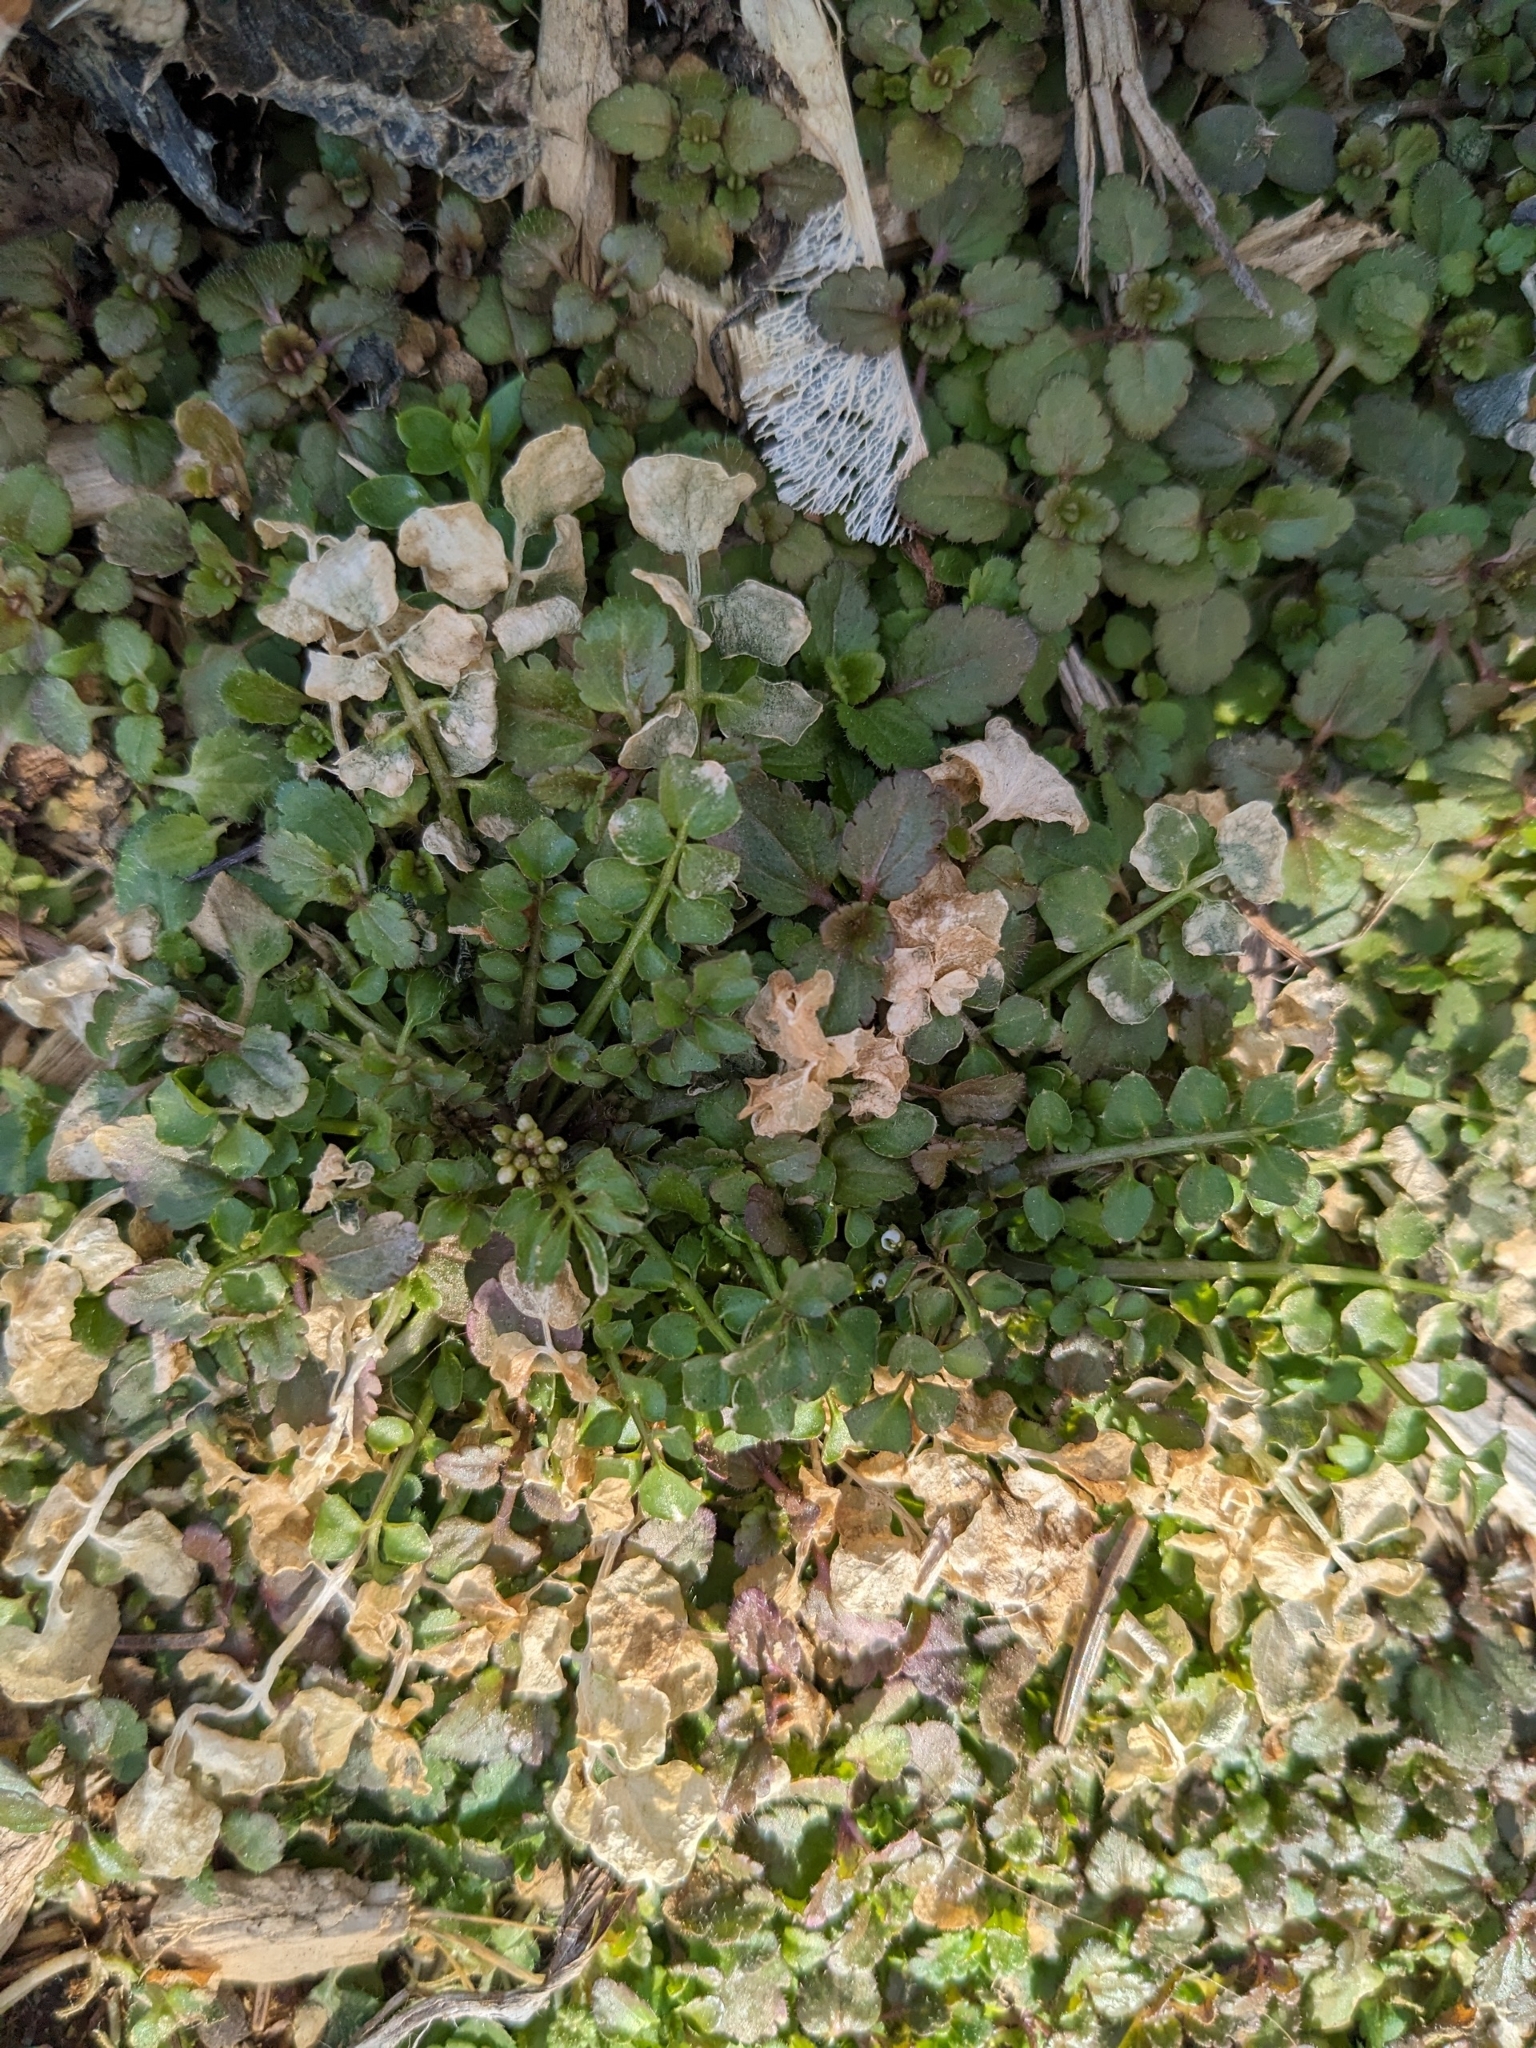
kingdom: Plantae
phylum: Tracheophyta
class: Magnoliopsida
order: Brassicales
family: Brassicaceae
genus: Cardamine
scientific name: Cardamine hirsuta
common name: Hairy bittercress
